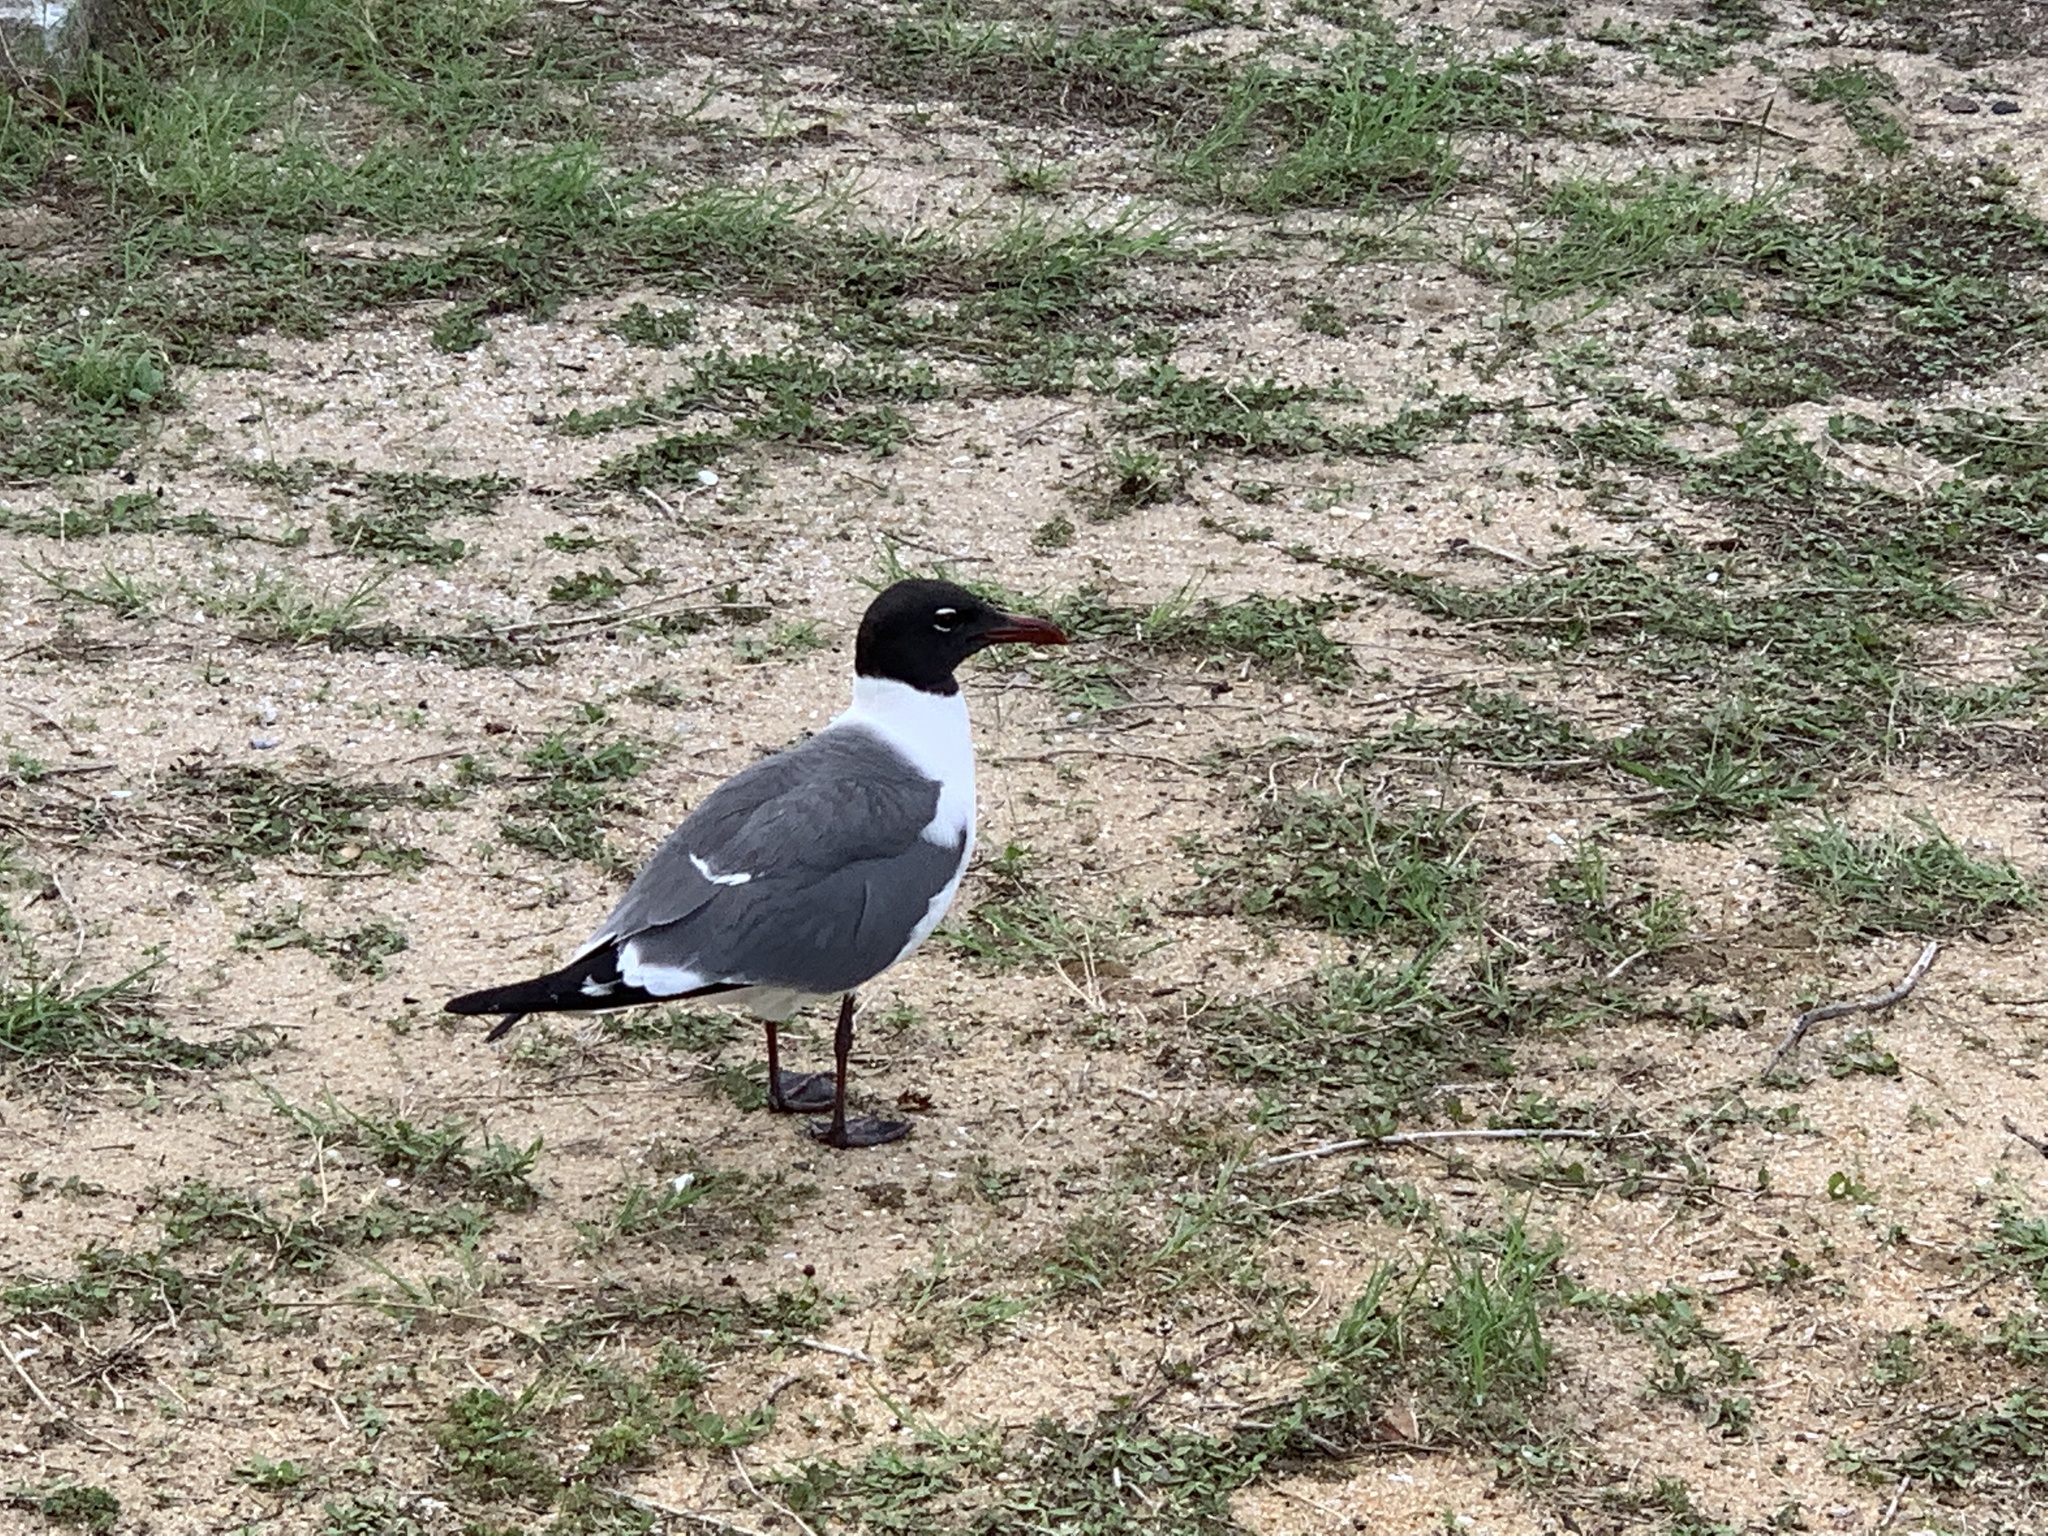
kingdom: Animalia
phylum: Chordata
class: Aves
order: Charadriiformes
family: Laridae
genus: Leucophaeus
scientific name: Leucophaeus atricilla
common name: Laughing gull
